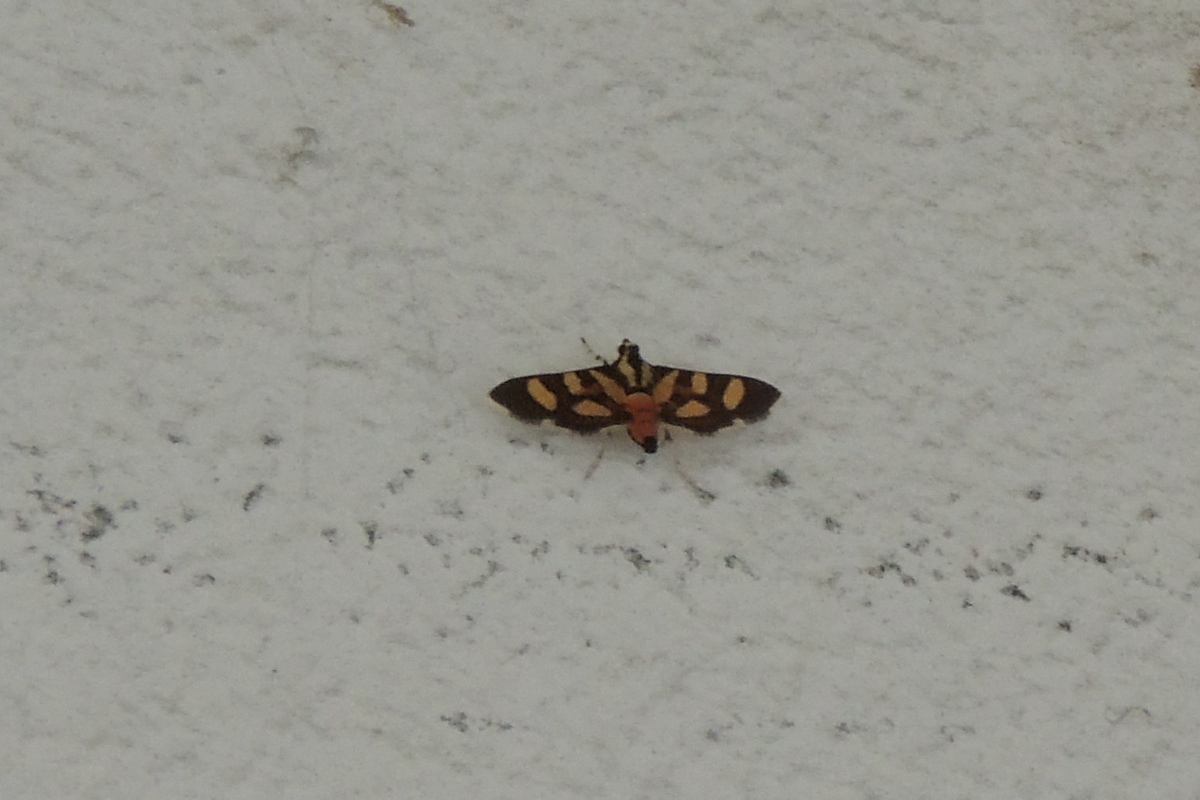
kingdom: Animalia
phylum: Arthropoda
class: Insecta
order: Lepidoptera
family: Crambidae
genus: Syngamia
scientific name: Syngamia florella
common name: Orange-spotted flower moth
